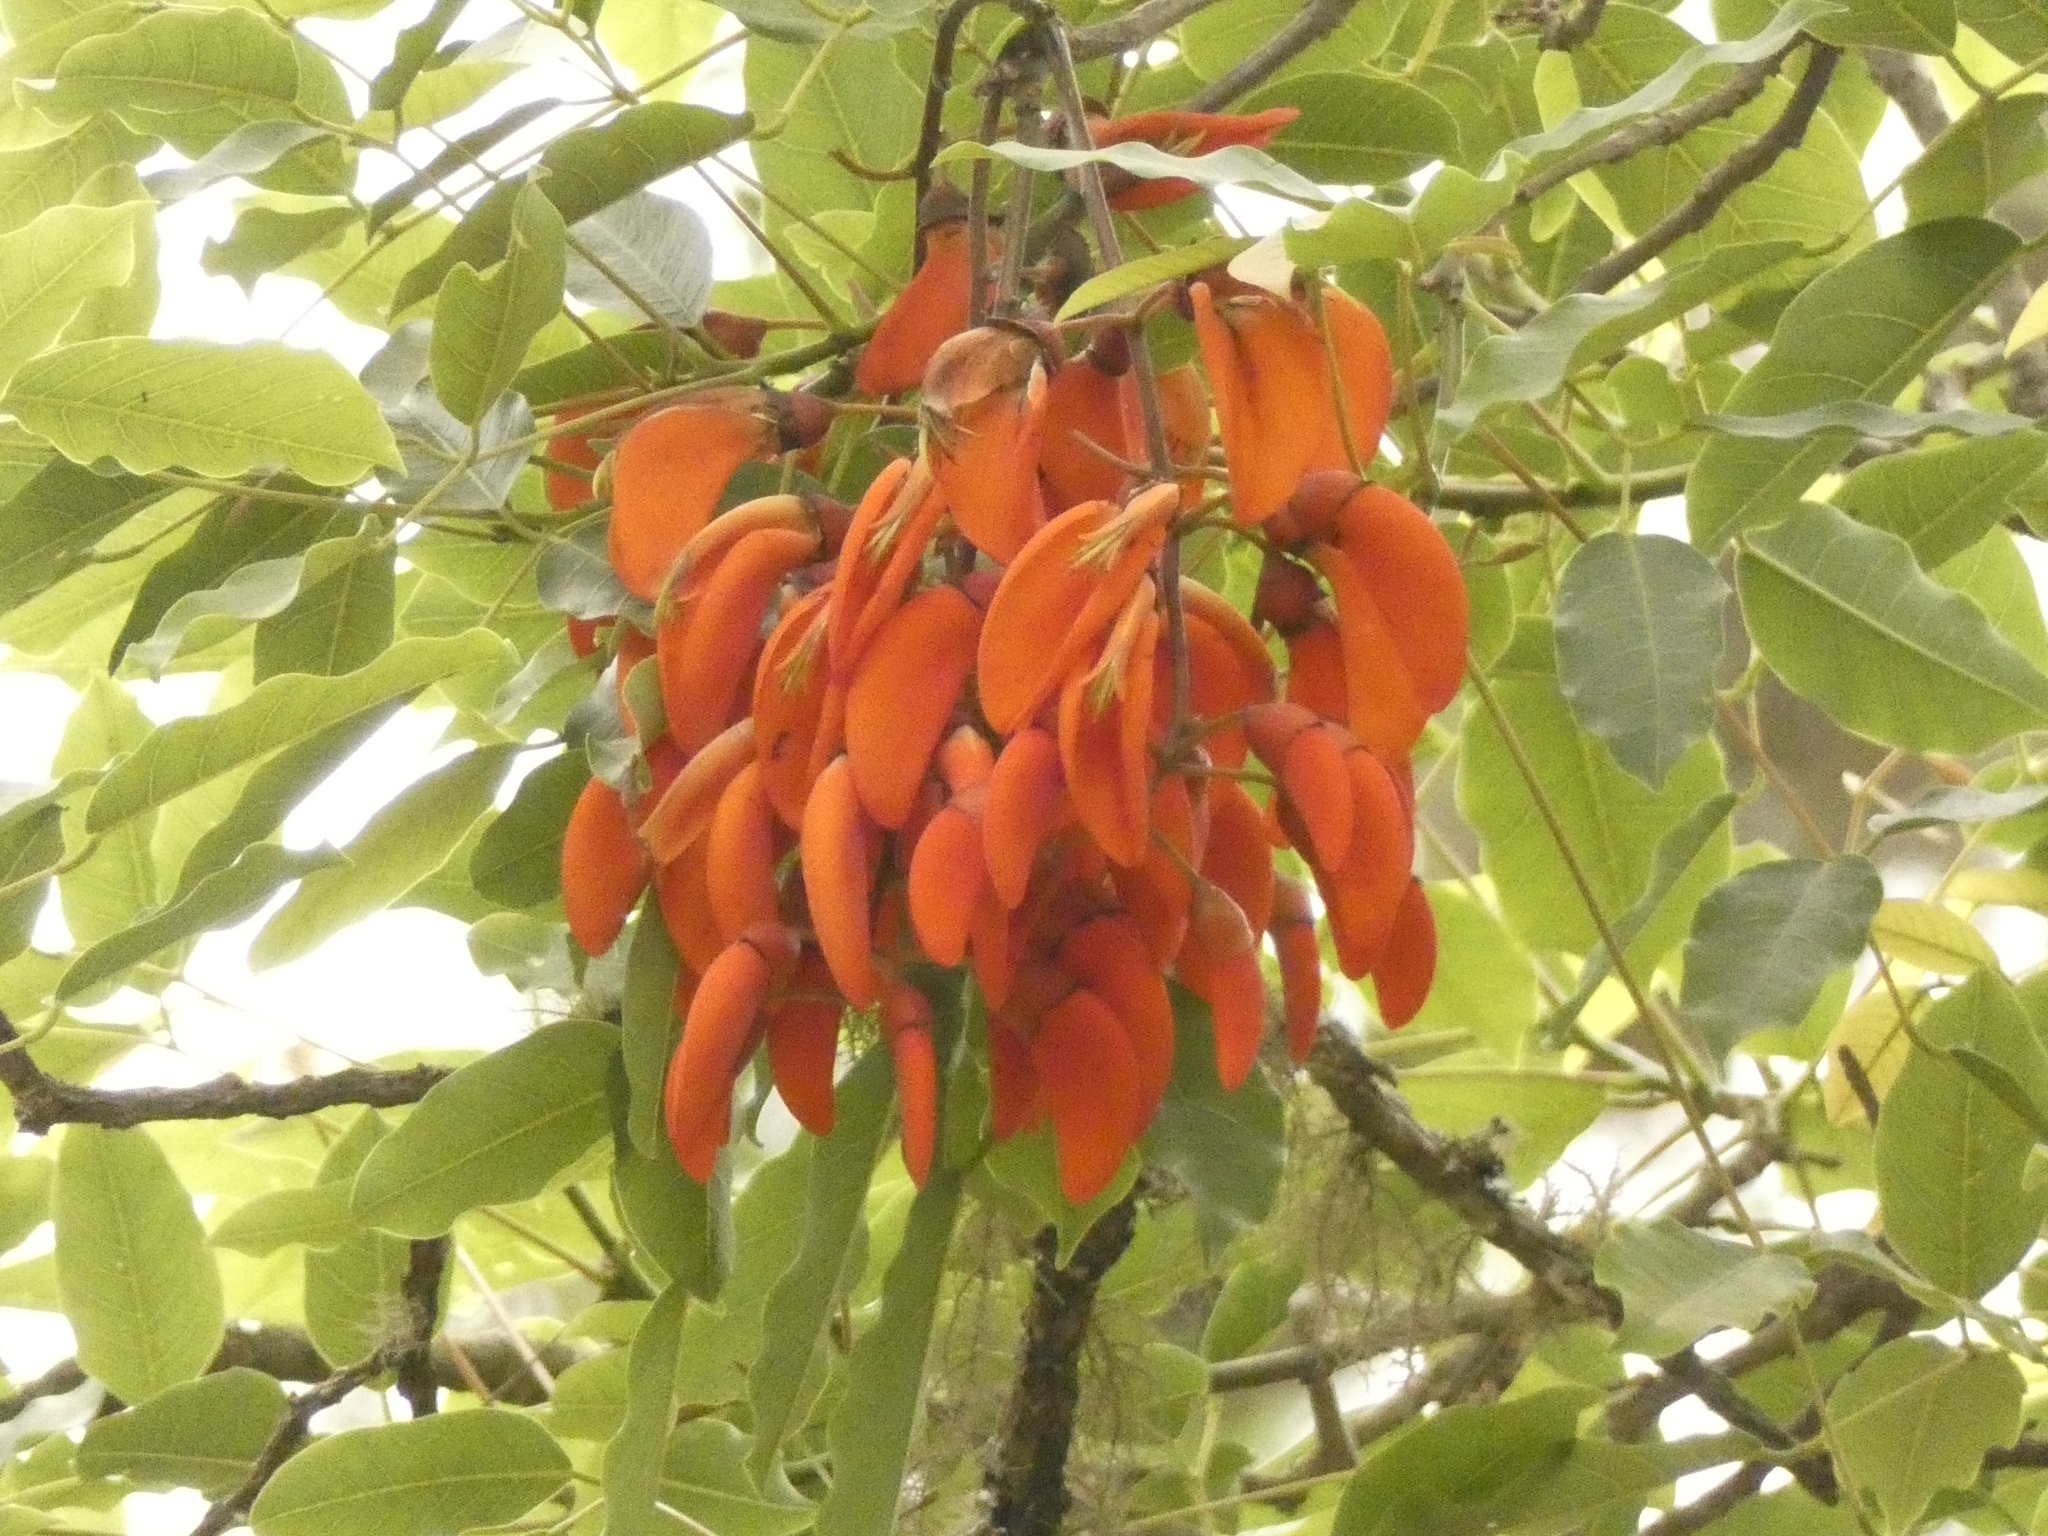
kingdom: Plantae
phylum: Tracheophyta
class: Magnoliopsida
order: Fabales
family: Fabaceae
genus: Erythrina
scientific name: Erythrina falcata
